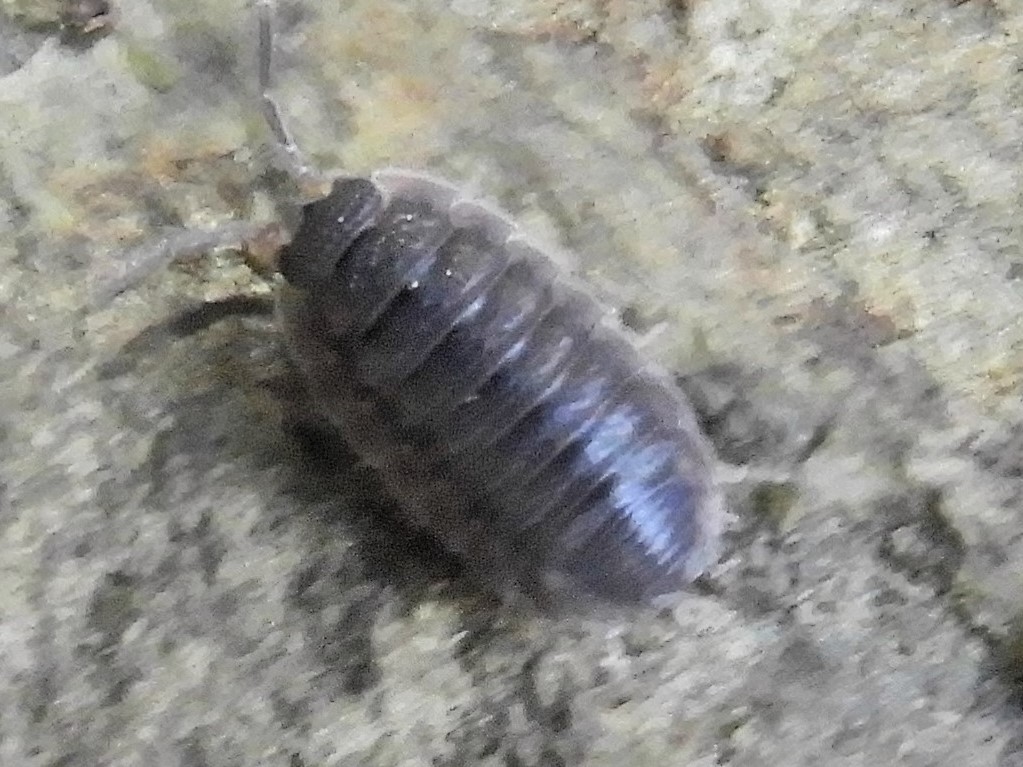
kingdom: Animalia
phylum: Arthropoda
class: Malacostraca
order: Isopoda
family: Porcellionidae
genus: Porcellio
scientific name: Porcellio scaber
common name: Common rough woodlouse
